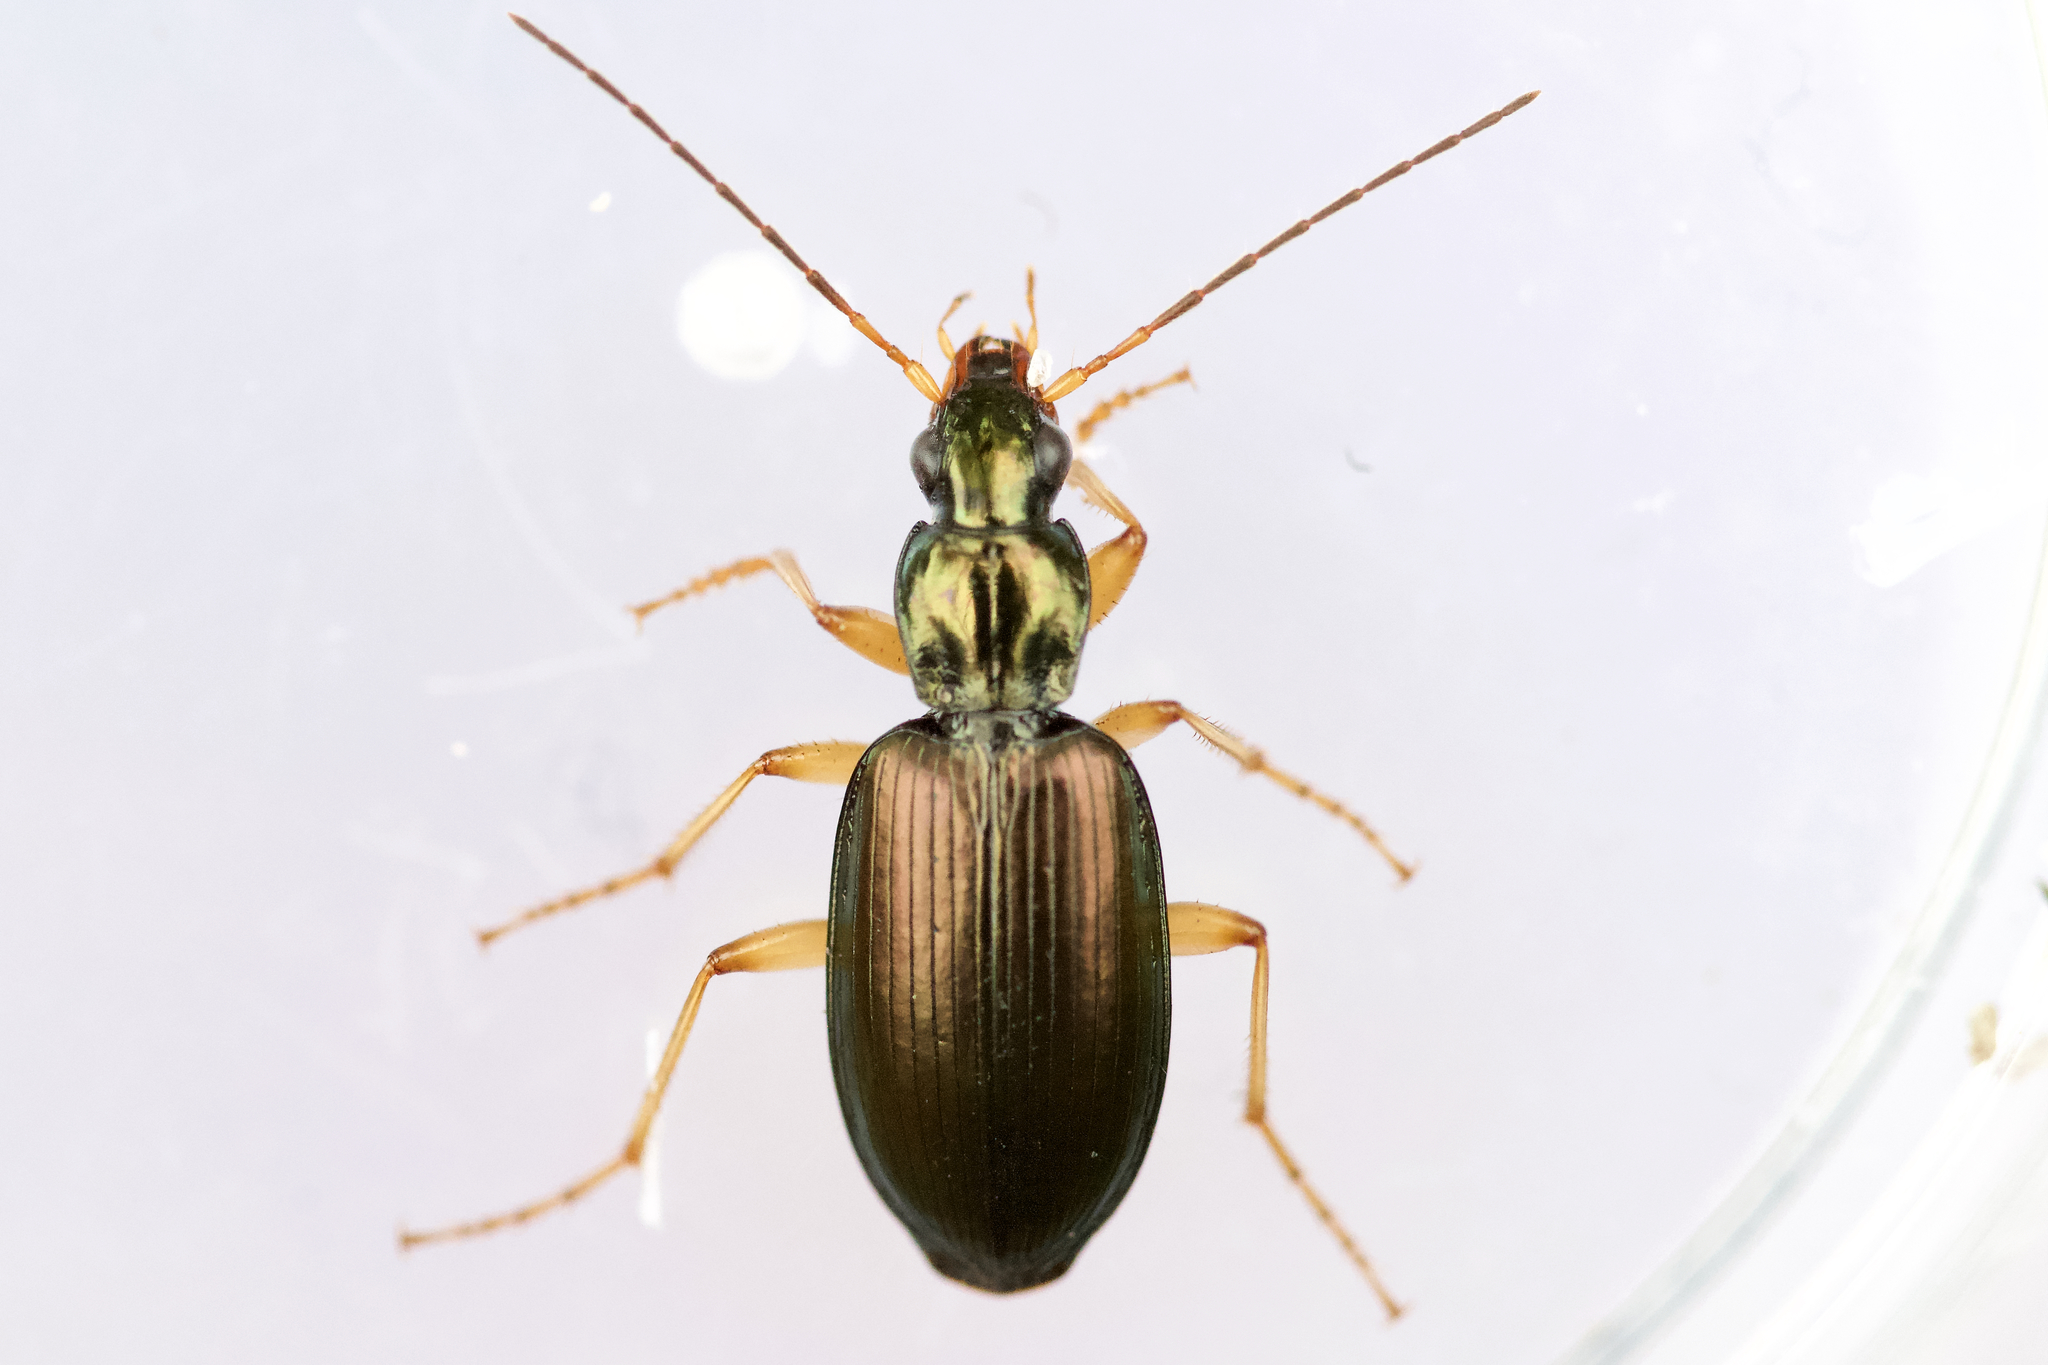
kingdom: Animalia
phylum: Arthropoda
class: Insecta
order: Coleoptera
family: Carabidae
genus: Agonum
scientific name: Agonum extensicolle
